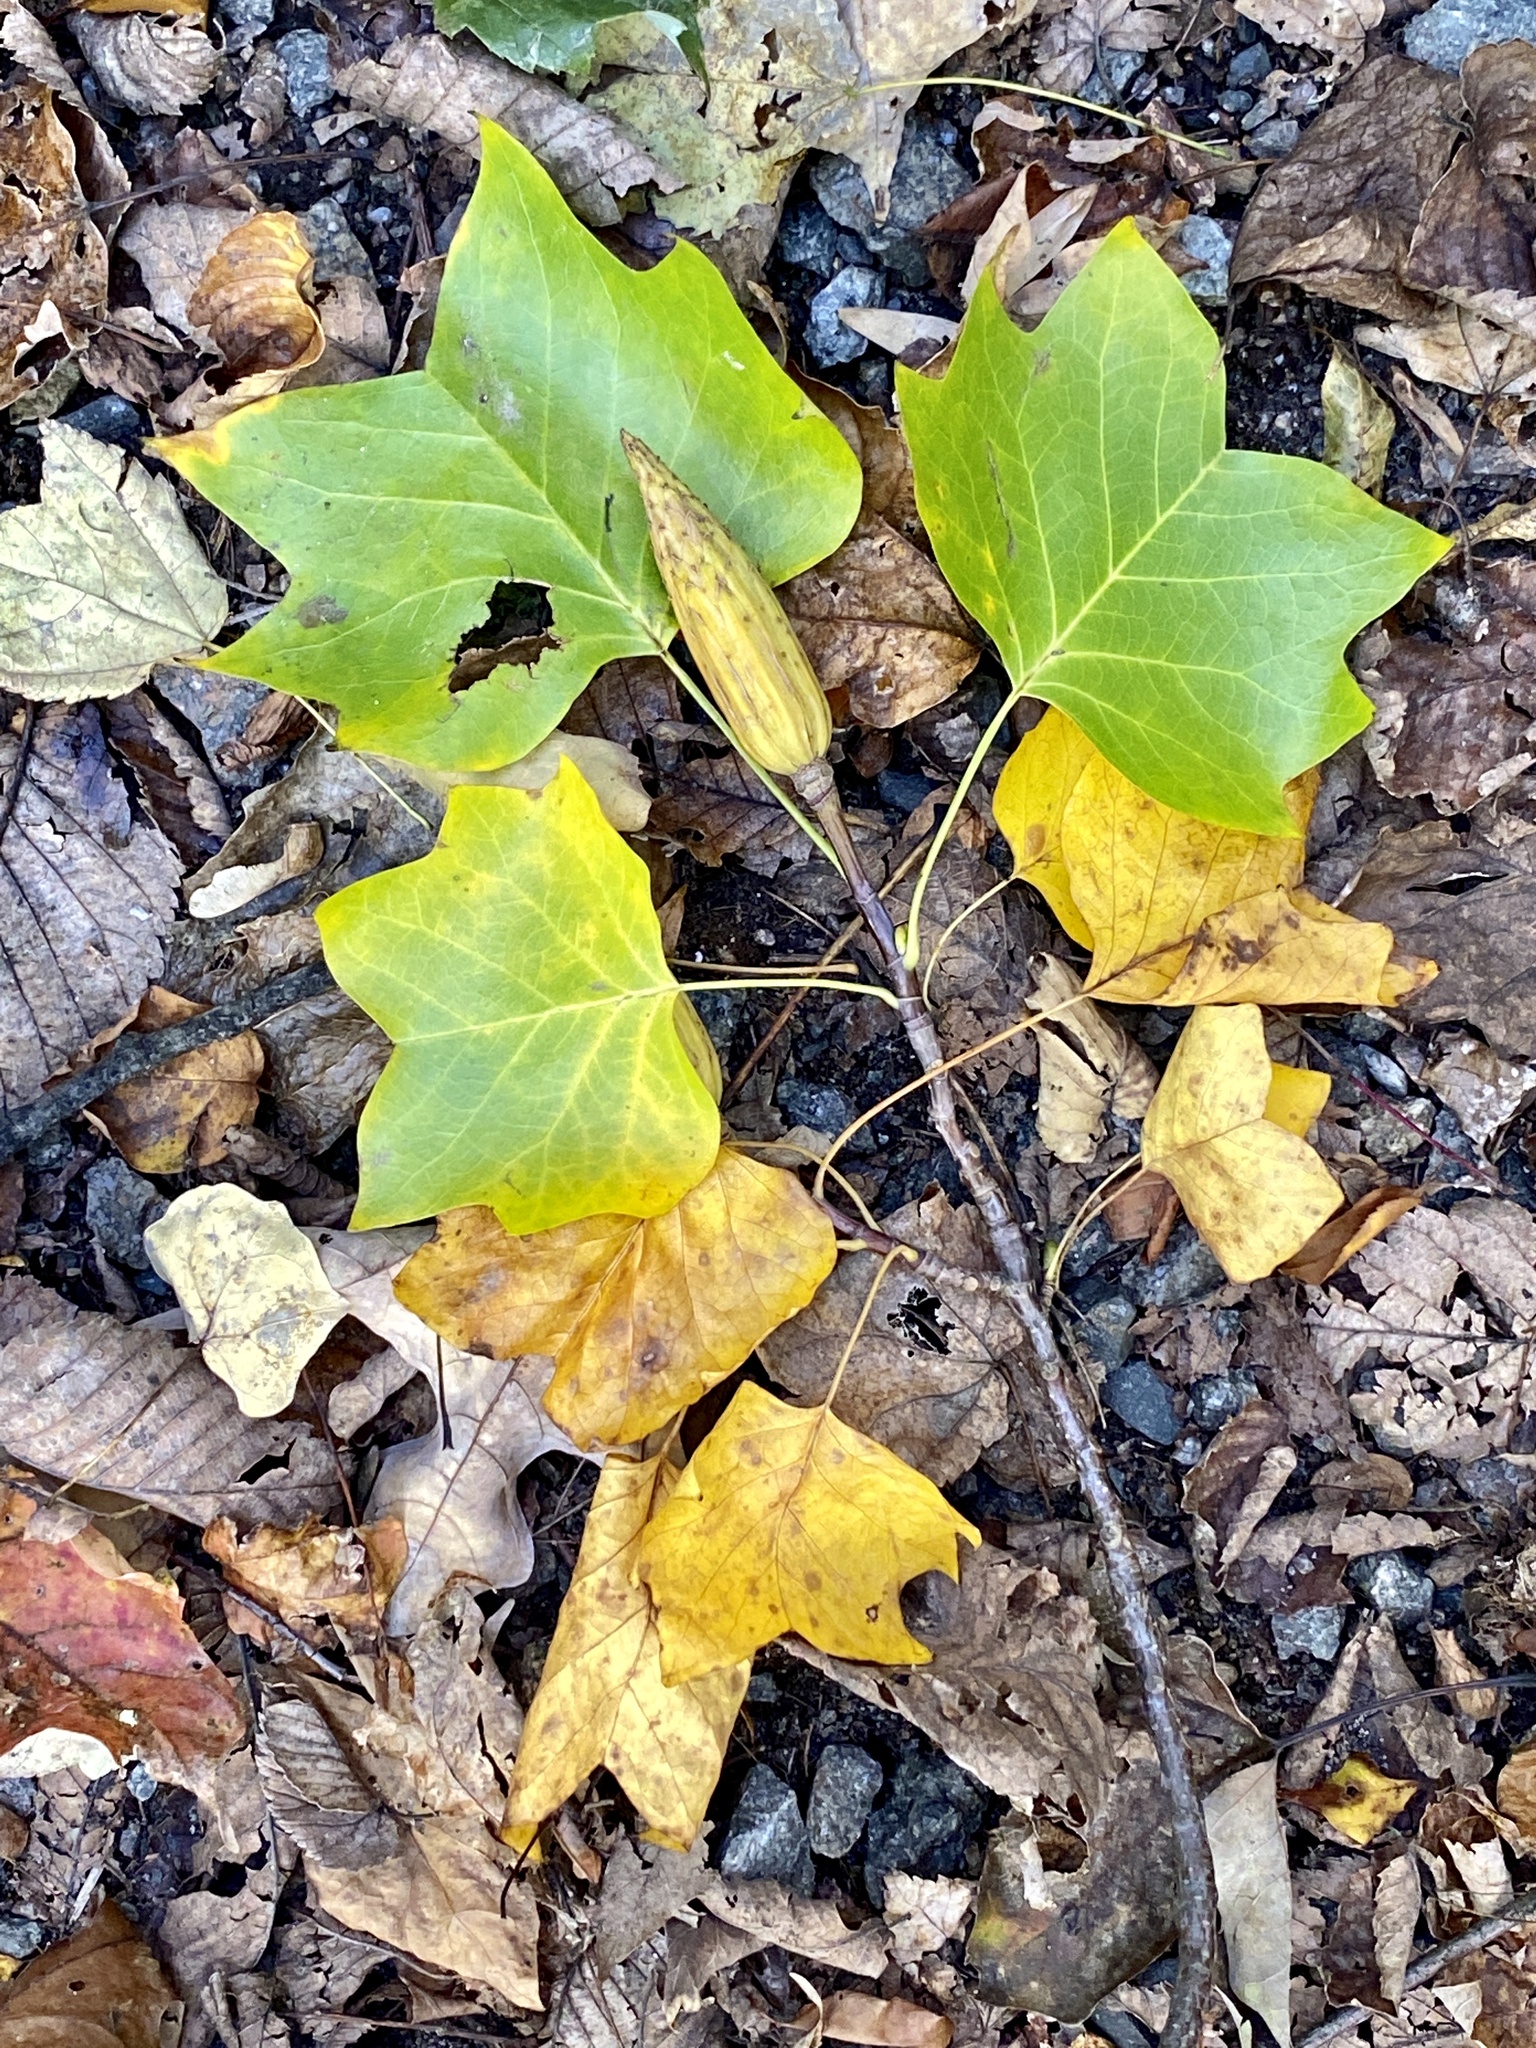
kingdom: Plantae
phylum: Tracheophyta
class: Magnoliopsida
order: Magnoliales
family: Magnoliaceae
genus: Liriodendron
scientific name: Liriodendron tulipifera
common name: Tulip tree
